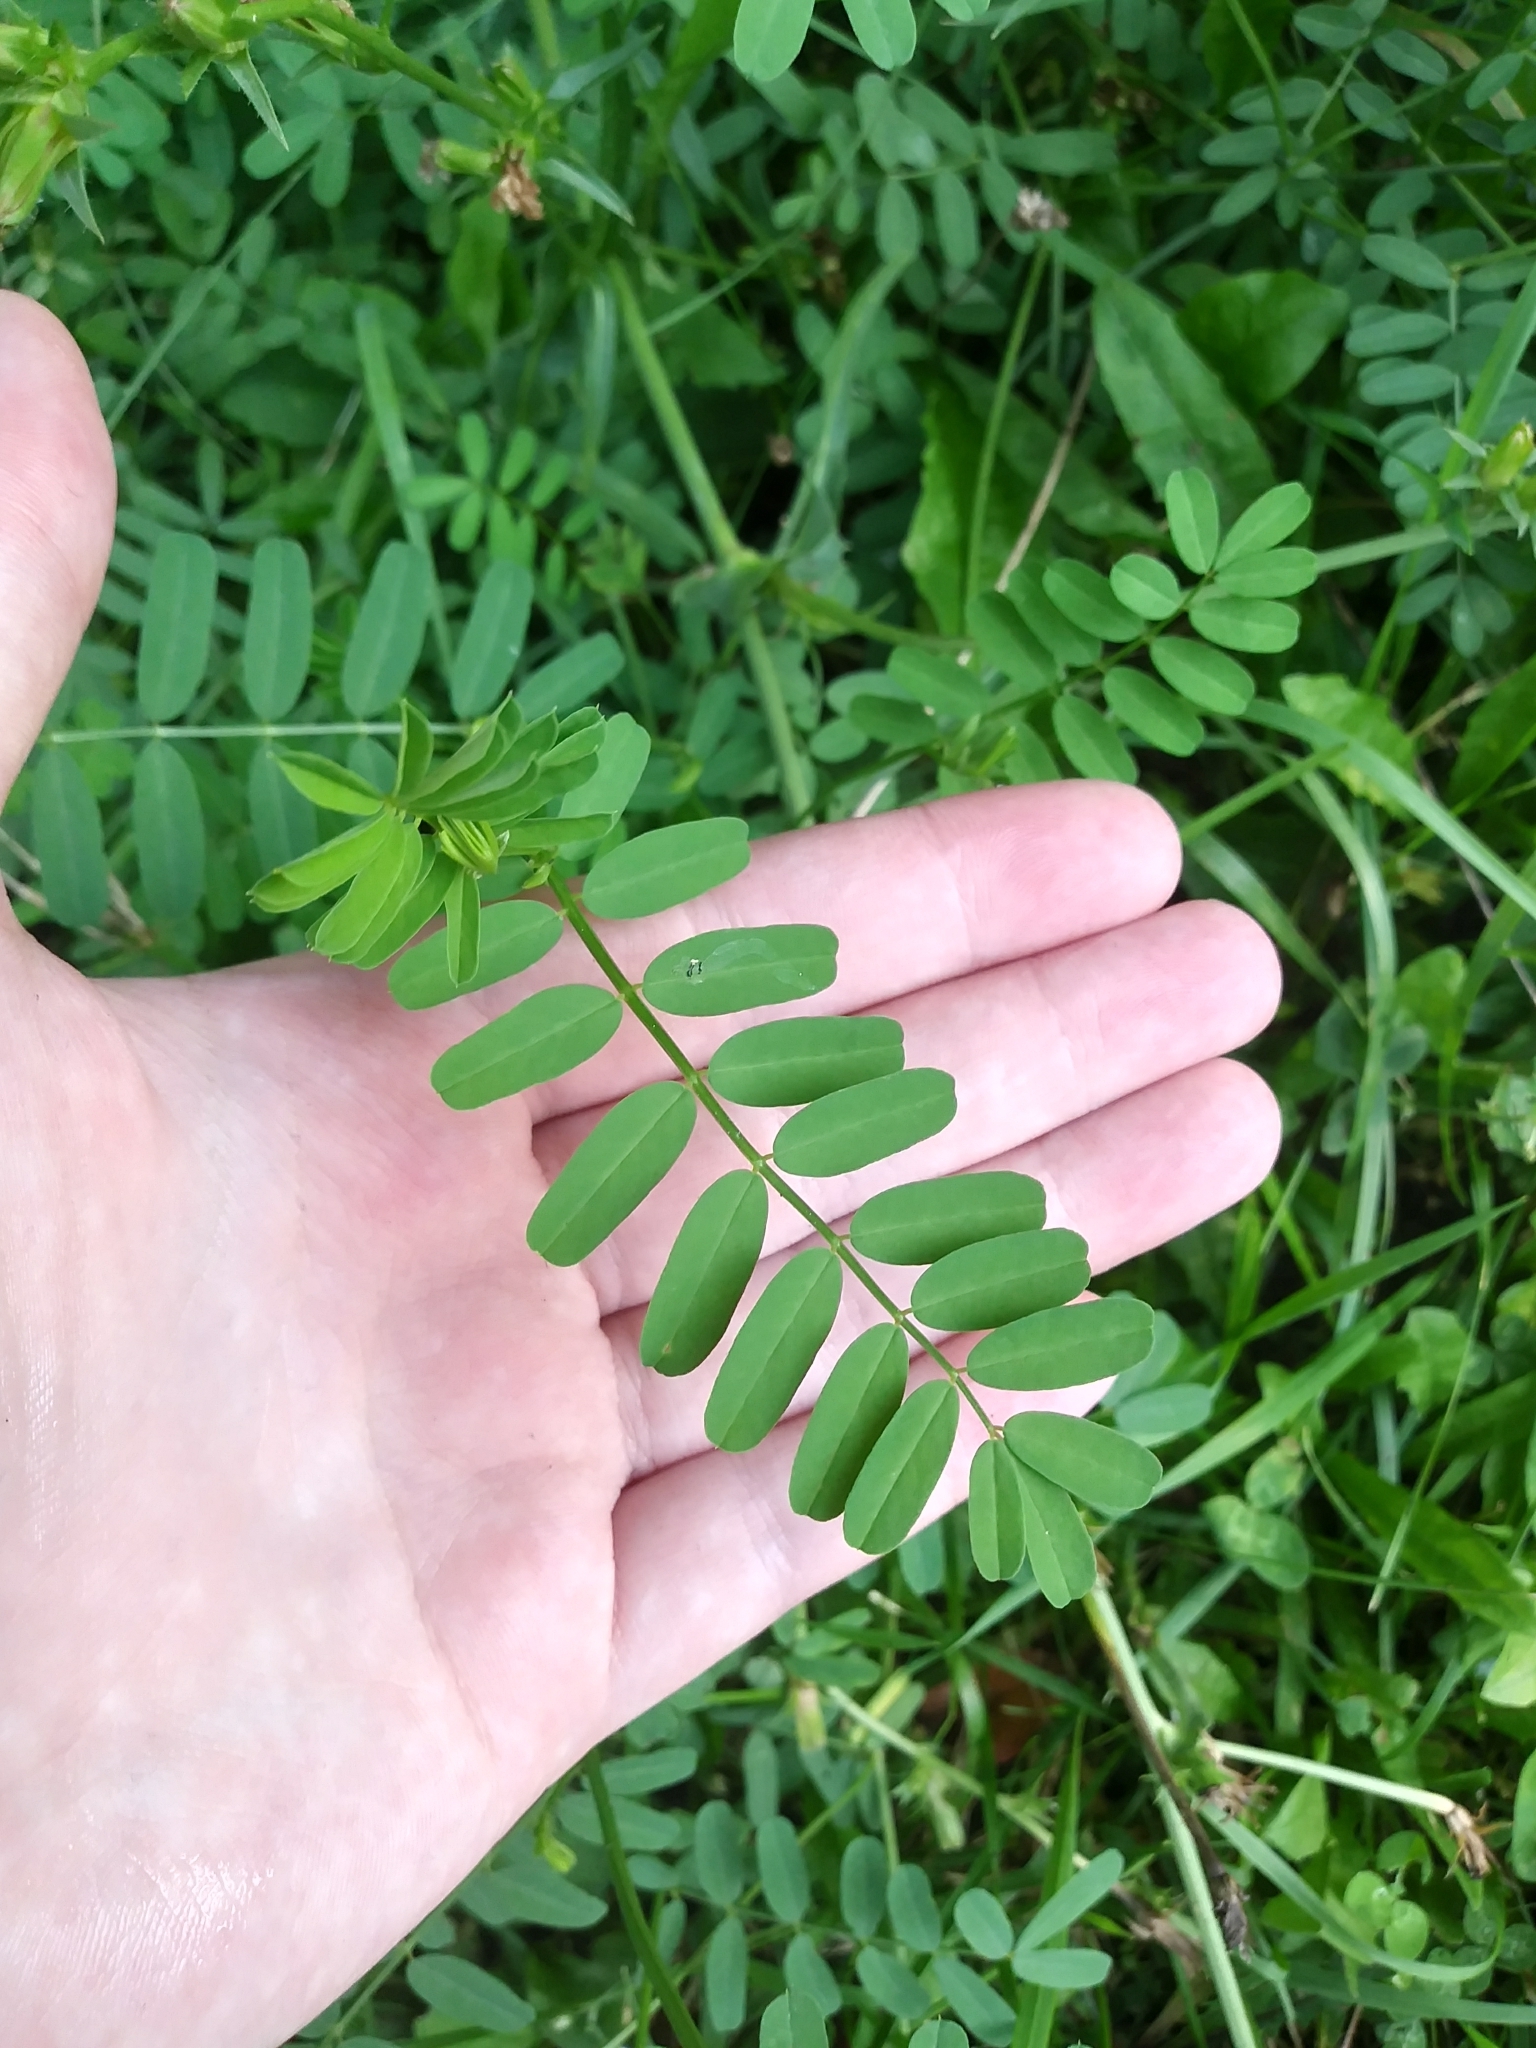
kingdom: Plantae
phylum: Tracheophyta
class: Magnoliopsida
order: Fabales
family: Fabaceae
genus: Coronilla
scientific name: Coronilla varia
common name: Crownvetch
